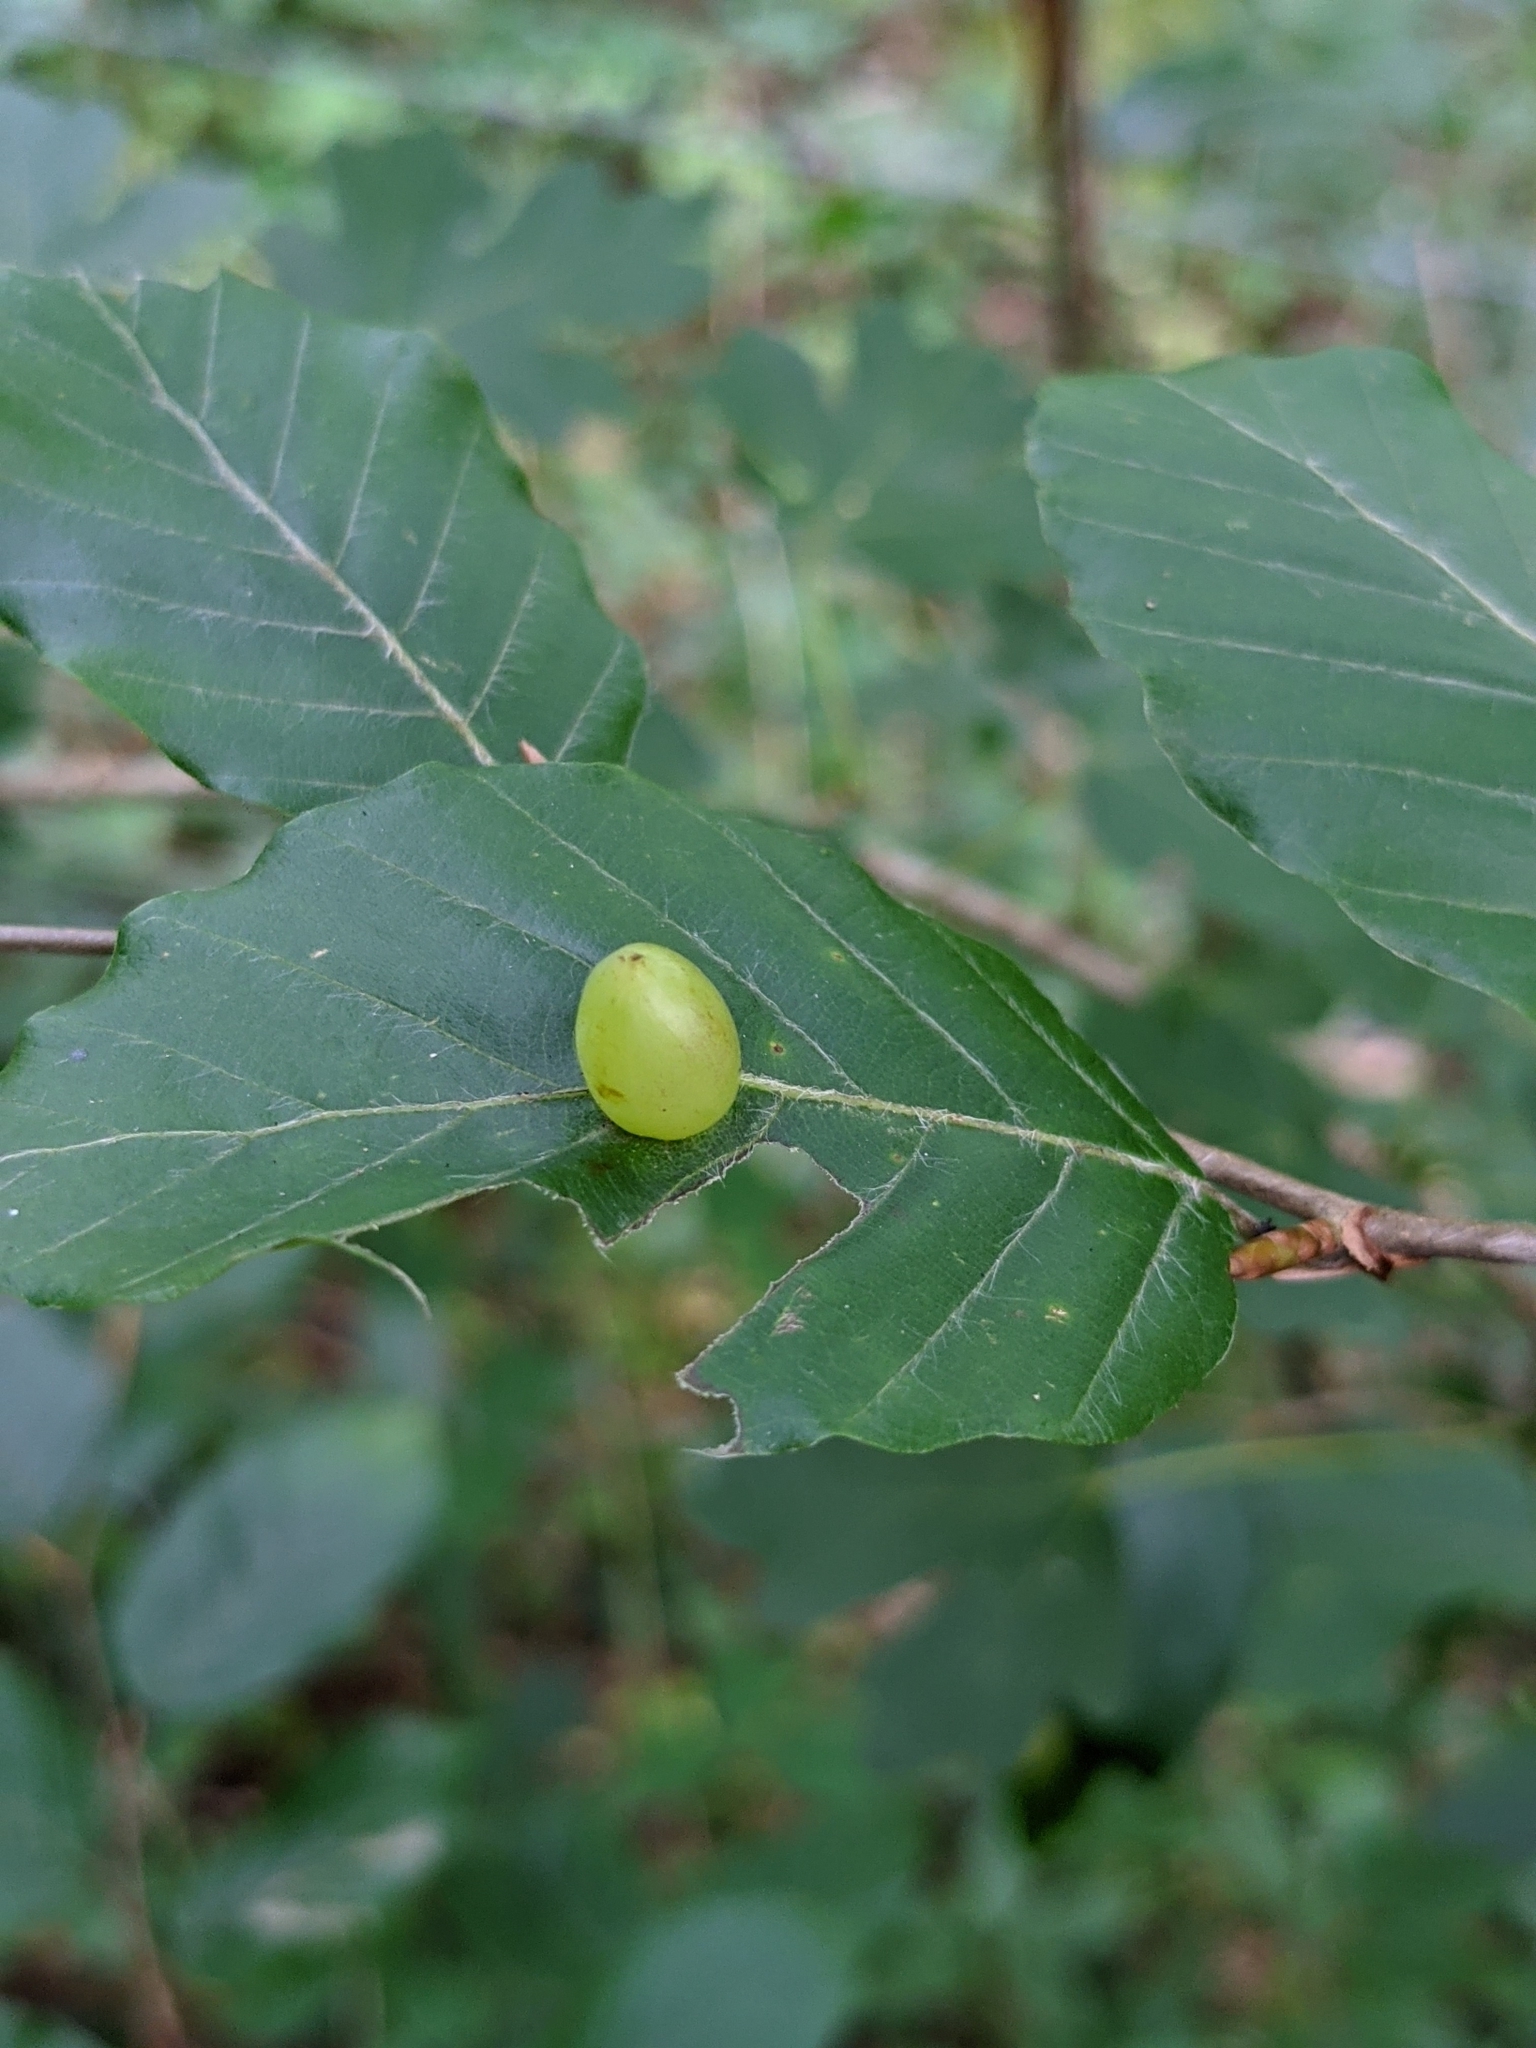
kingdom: Animalia
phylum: Arthropoda
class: Insecta
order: Diptera
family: Cecidomyiidae
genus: Mikiola
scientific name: Mikiola fagi
